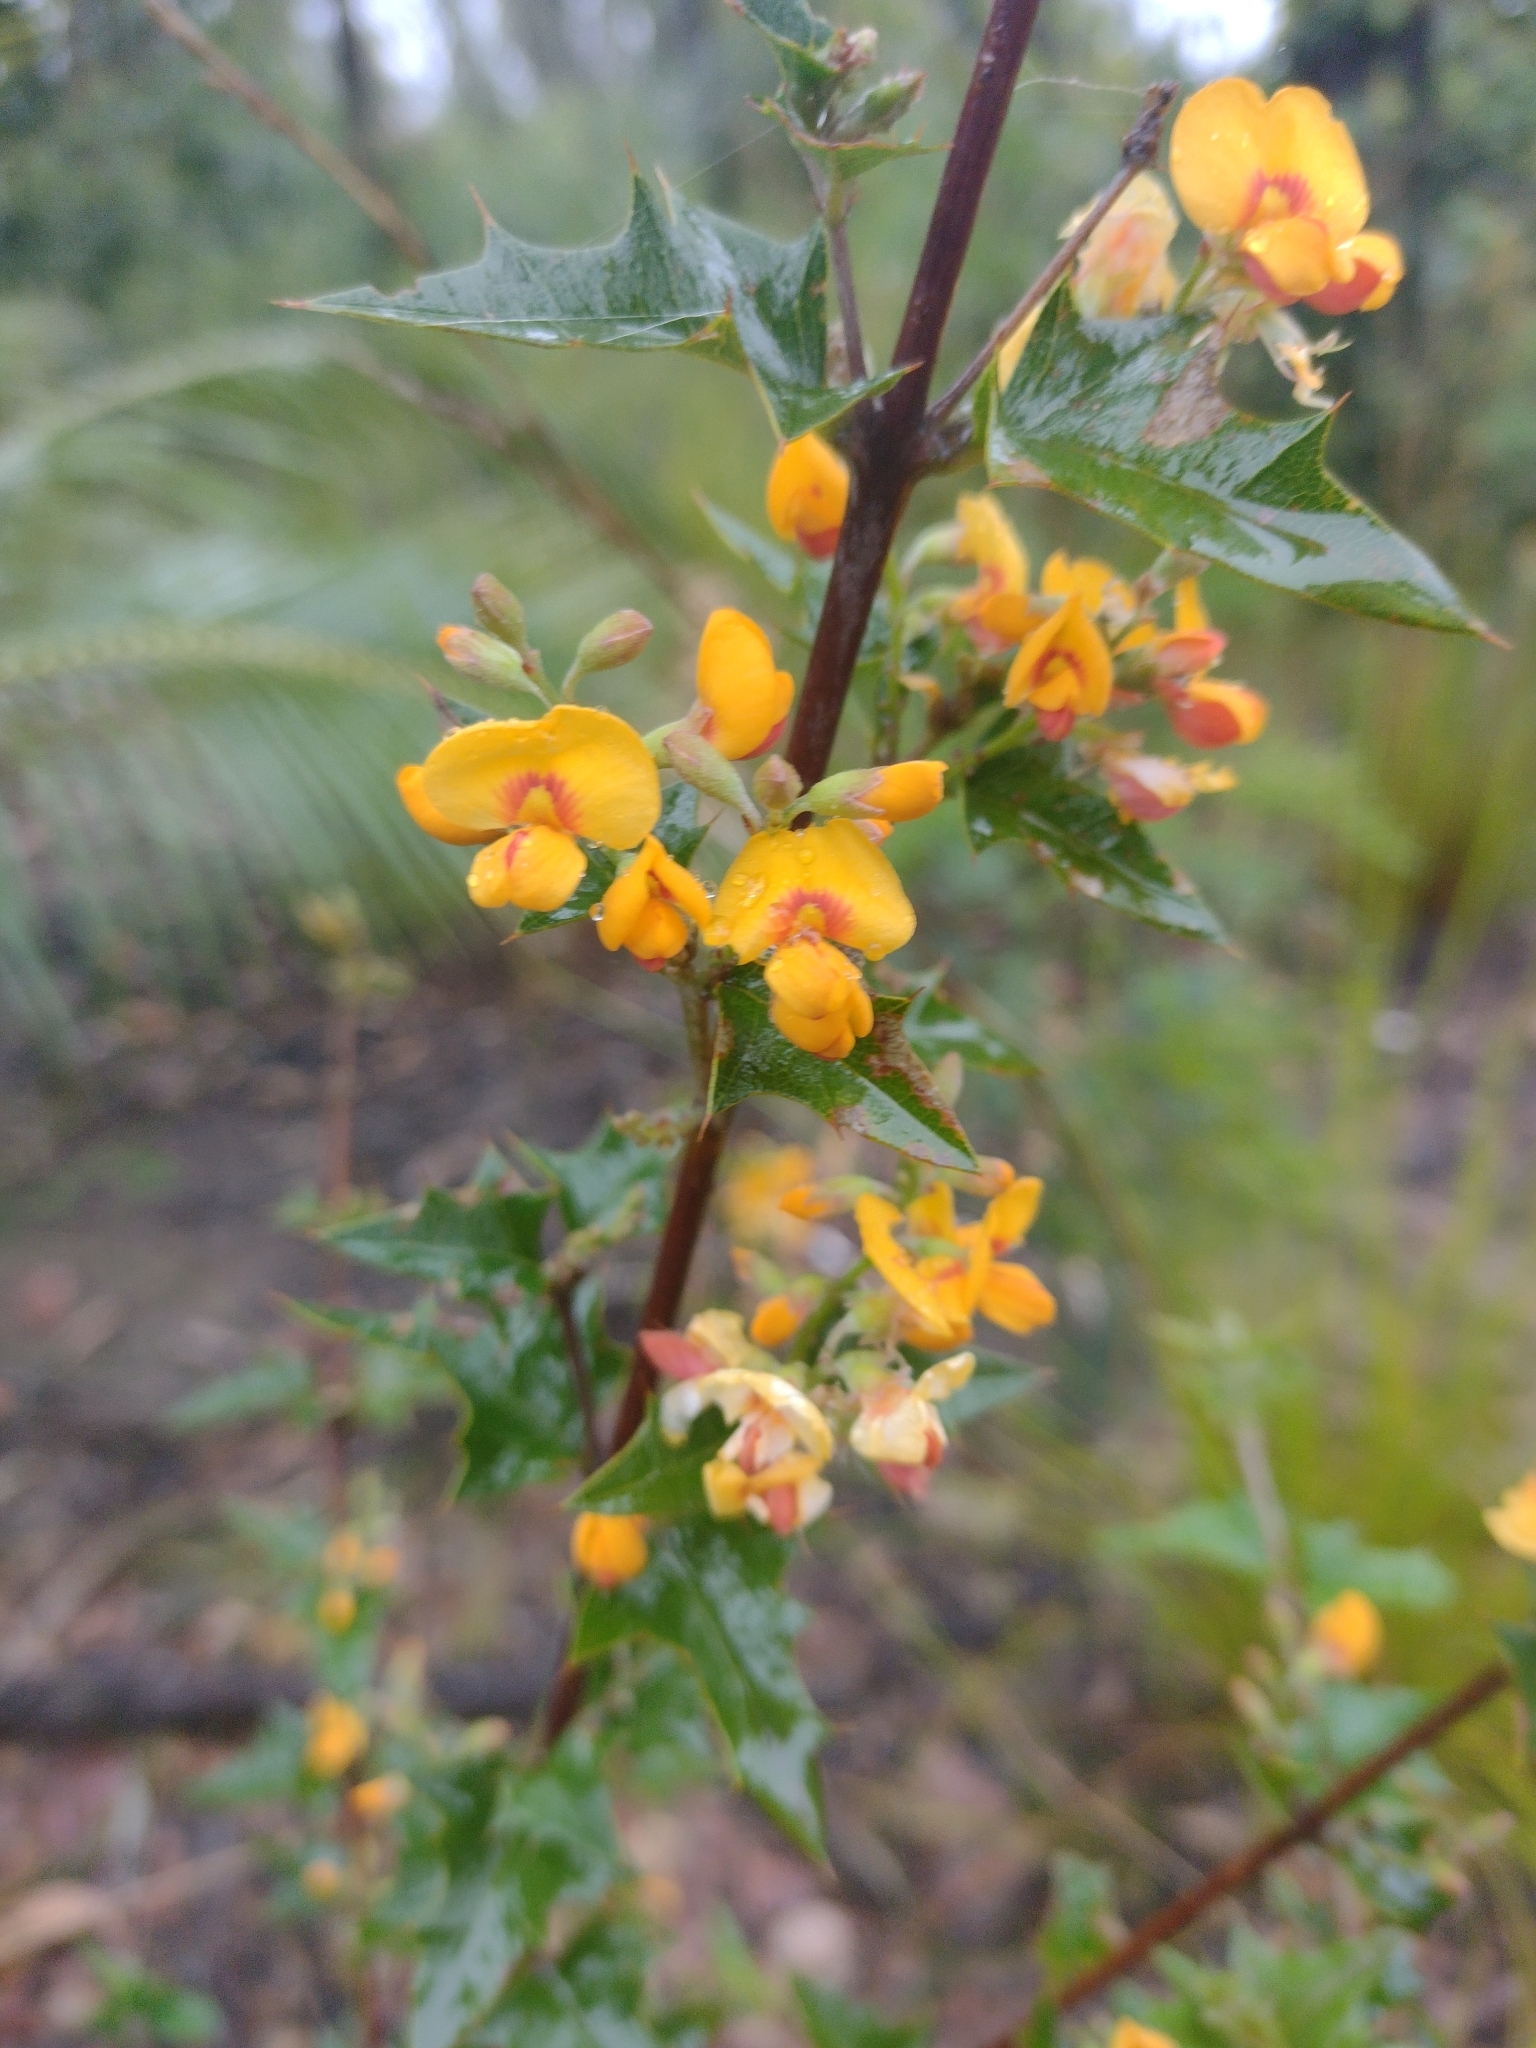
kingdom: Plantae
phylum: Tracheophyta
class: Magnoliopsida
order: Fabales
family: Fabaceae
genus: Podolobium
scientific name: Podolobium ilicifolium
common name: Native holly
